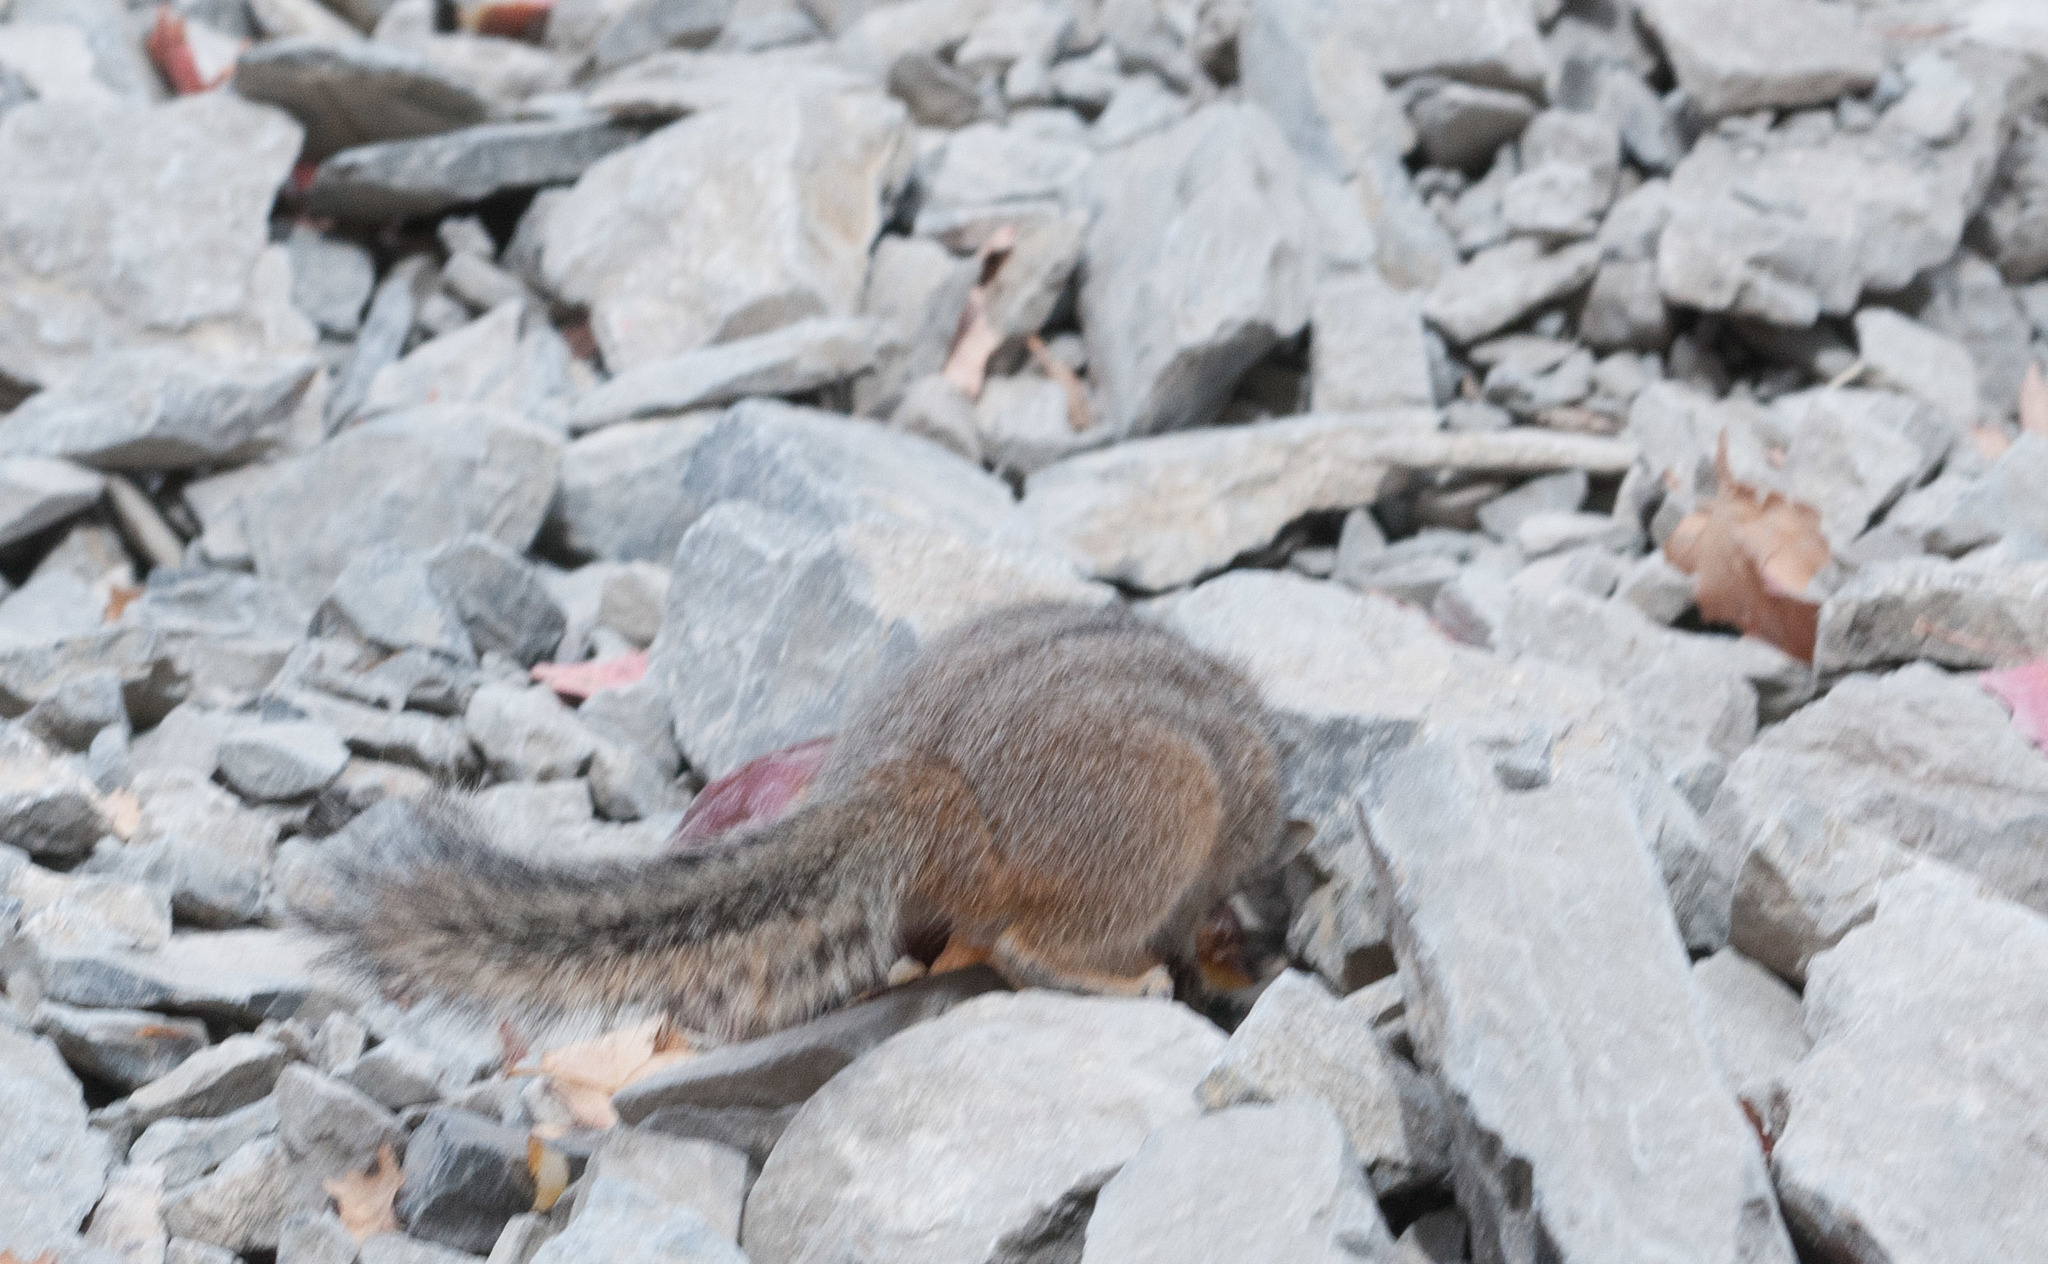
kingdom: Animalia
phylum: Chordata
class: Mammalia
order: Rodentia
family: Sciuridae
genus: Tamias
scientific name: Tamias dorsalis
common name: Cliff chipmunk
